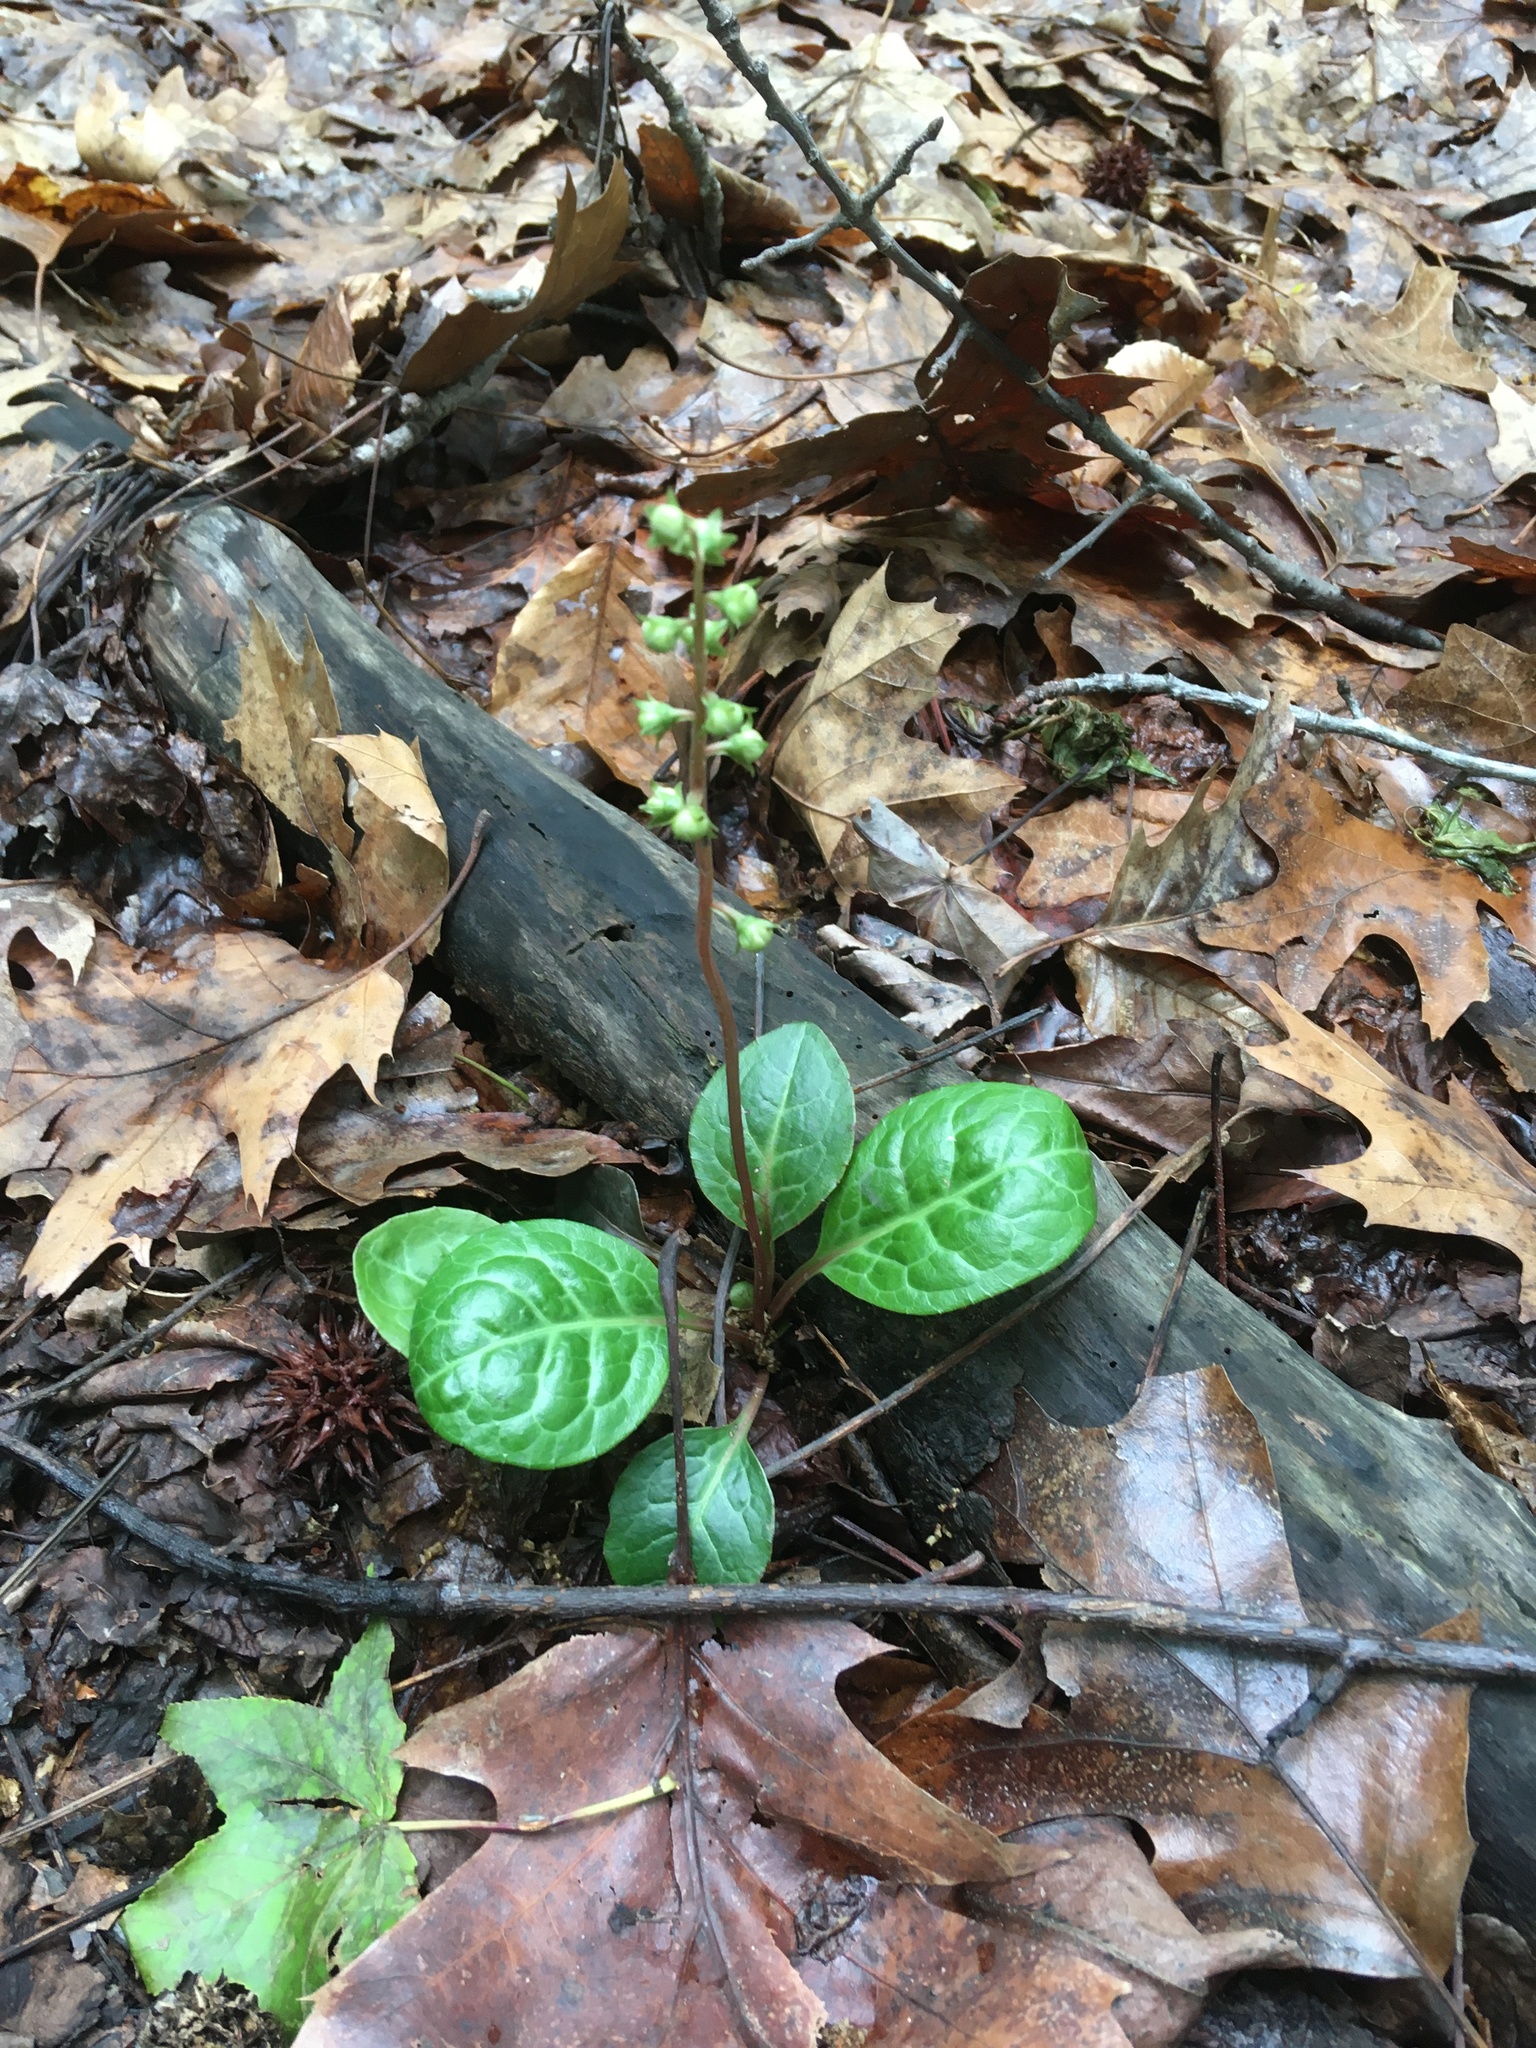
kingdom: Plantae
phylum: Tracheophyta
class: Magnoliopsida
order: Ericales
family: Ericaceae
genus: Pyrola
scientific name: Pyrola americana
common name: American wintergreen
